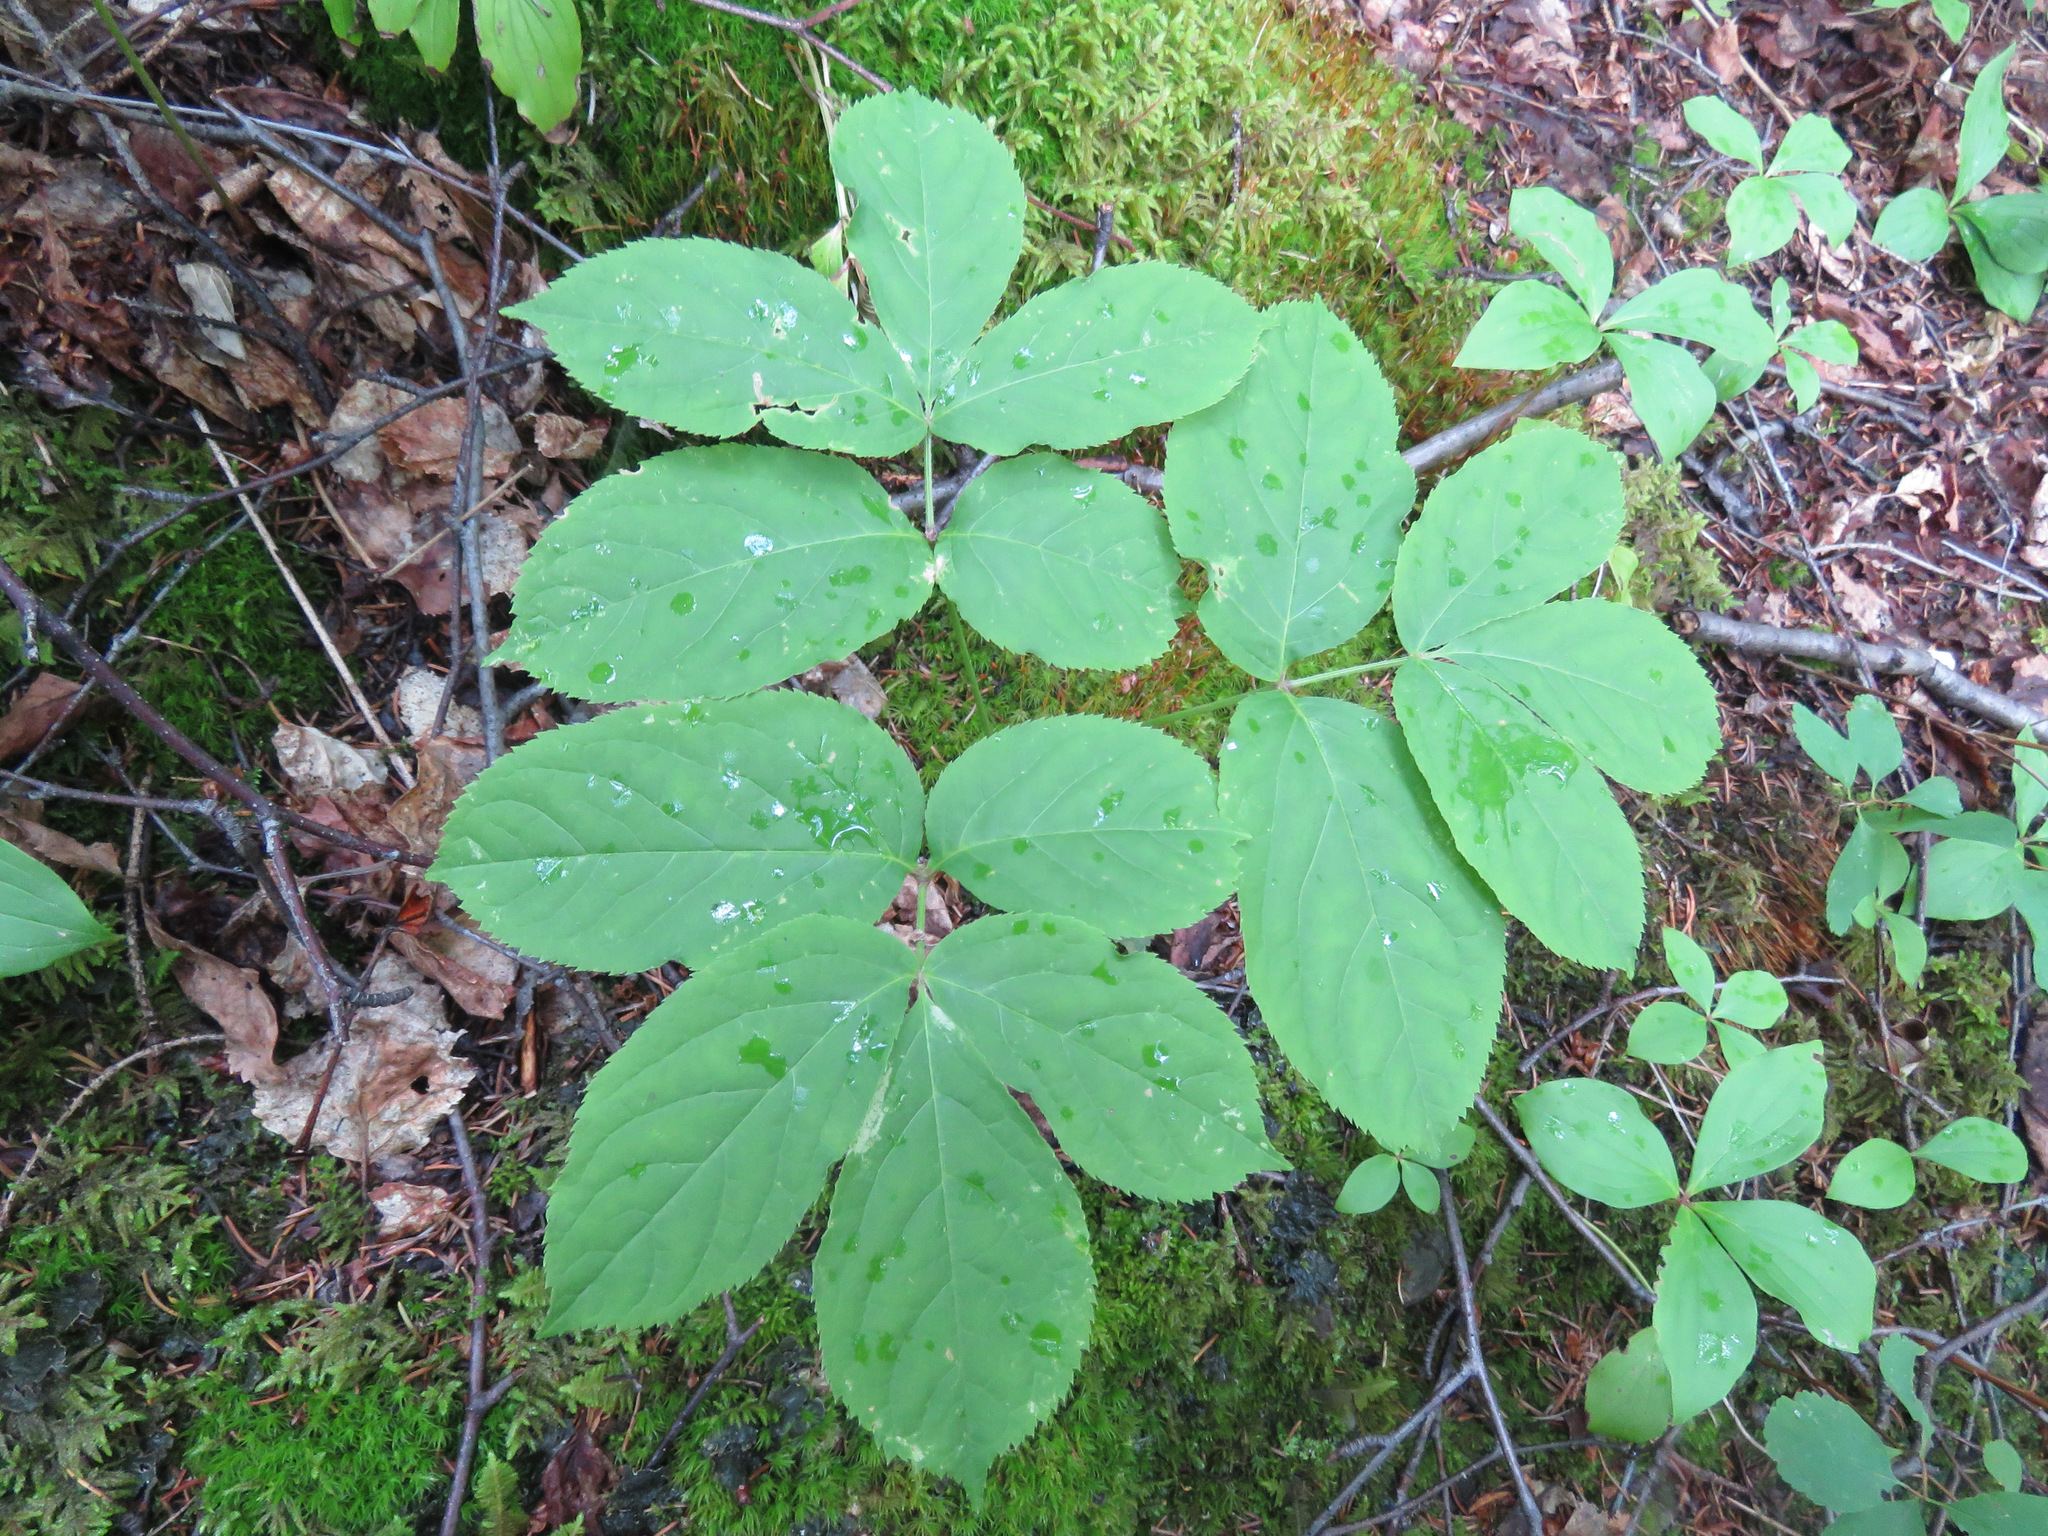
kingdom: Plantae
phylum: Tracheophyta
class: Magnoliopsida
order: Apiales
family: Araliaceae
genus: Aralia
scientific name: Aralia nudicaulis
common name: Wild sarsaparilla
